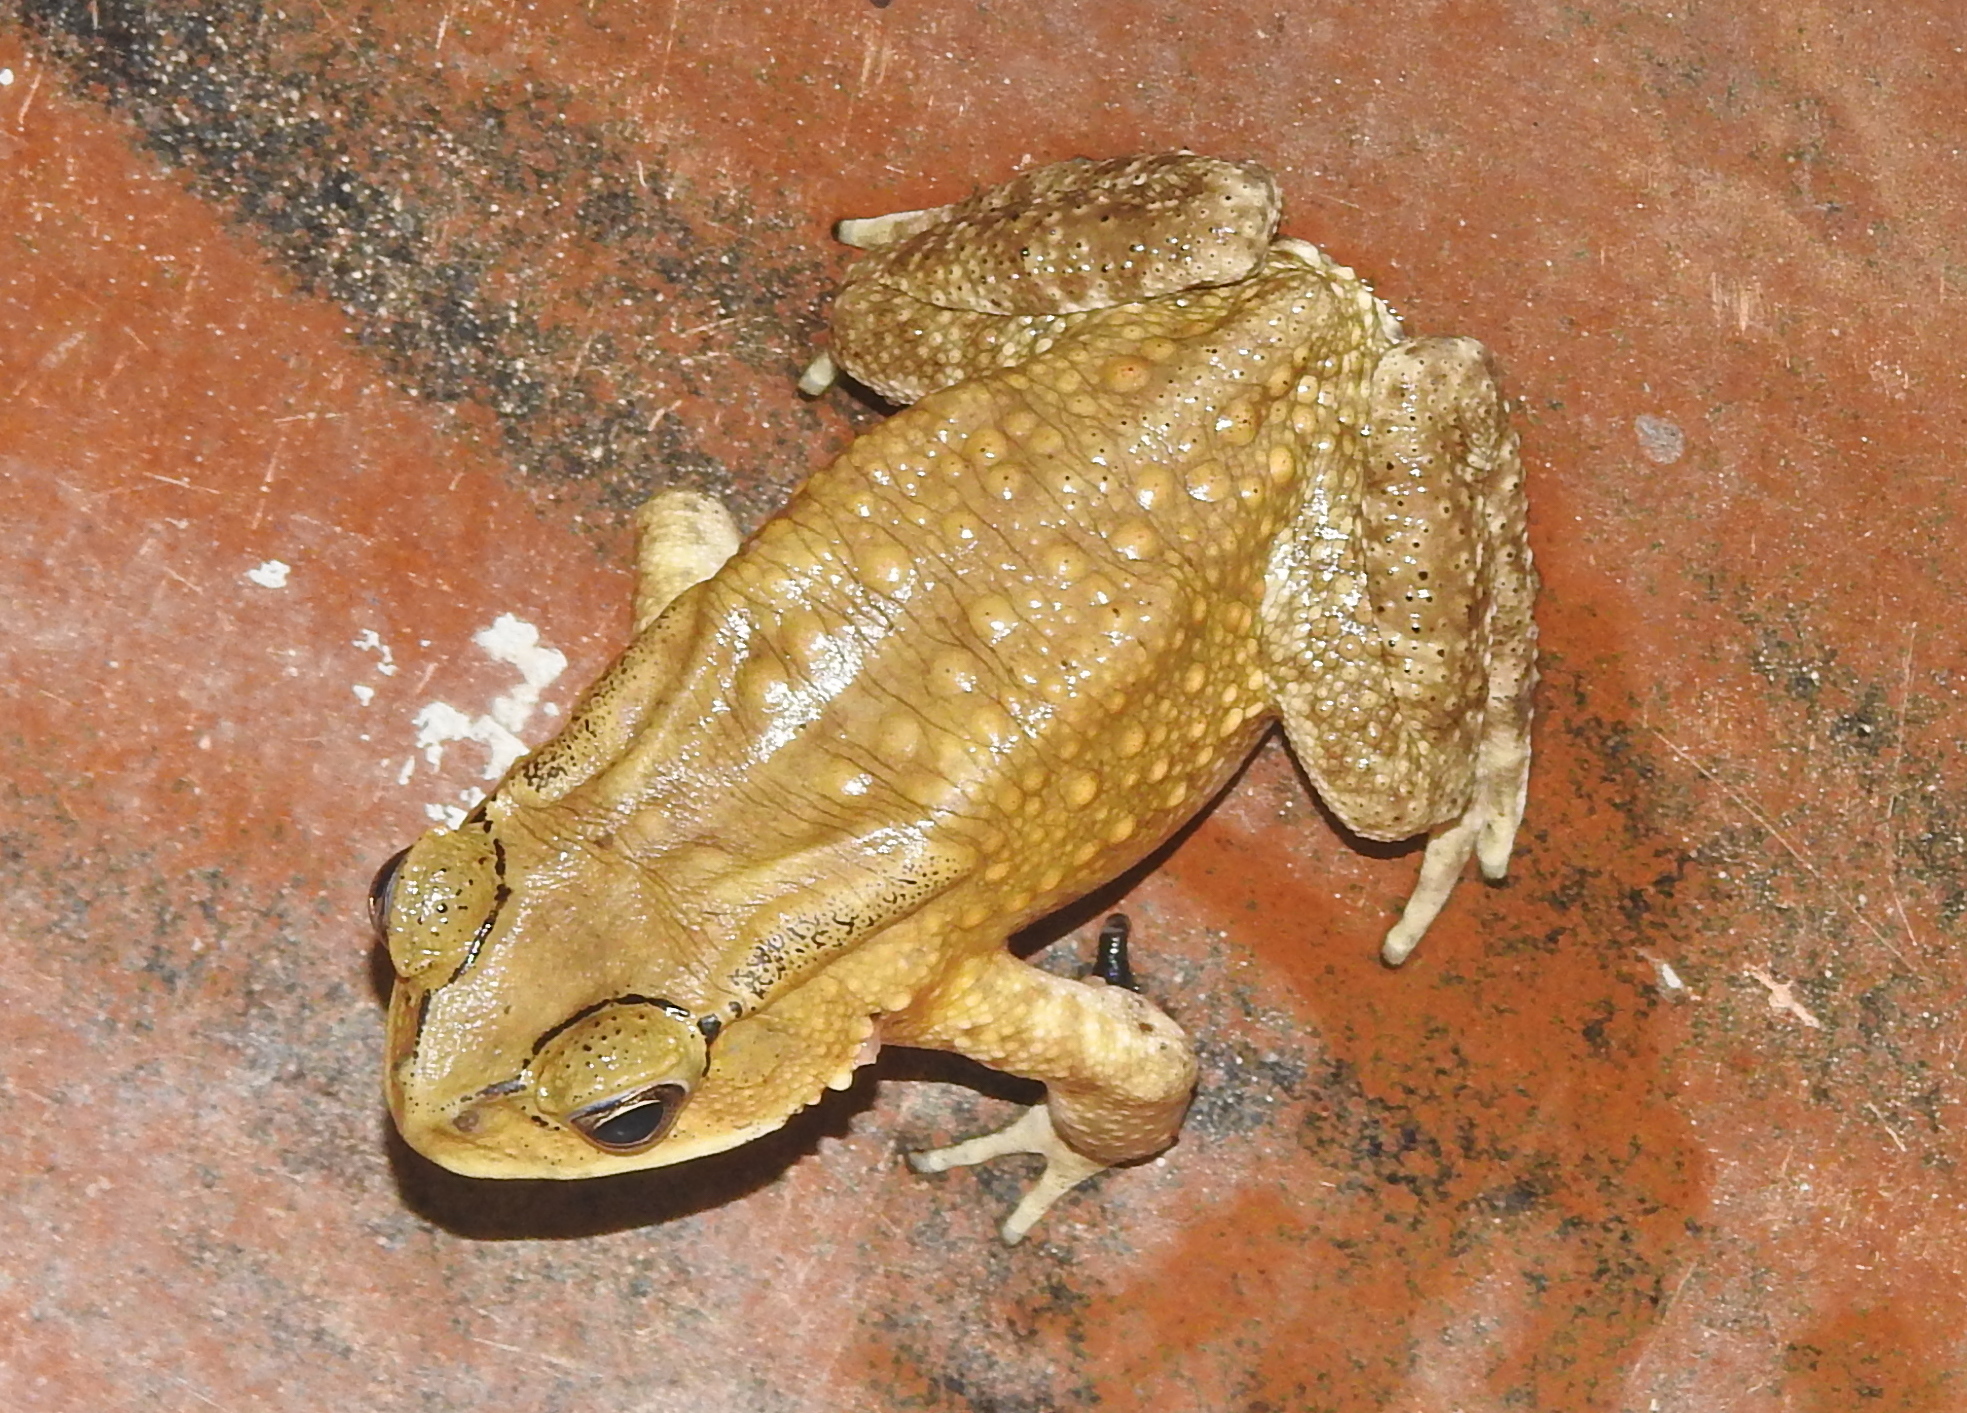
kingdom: Animalia
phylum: Chordata
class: Amphibia
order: Anura
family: Bufonidae
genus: Duttaphrynus
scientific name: Duttaphrynus melanostictus
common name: Common sunda toad
